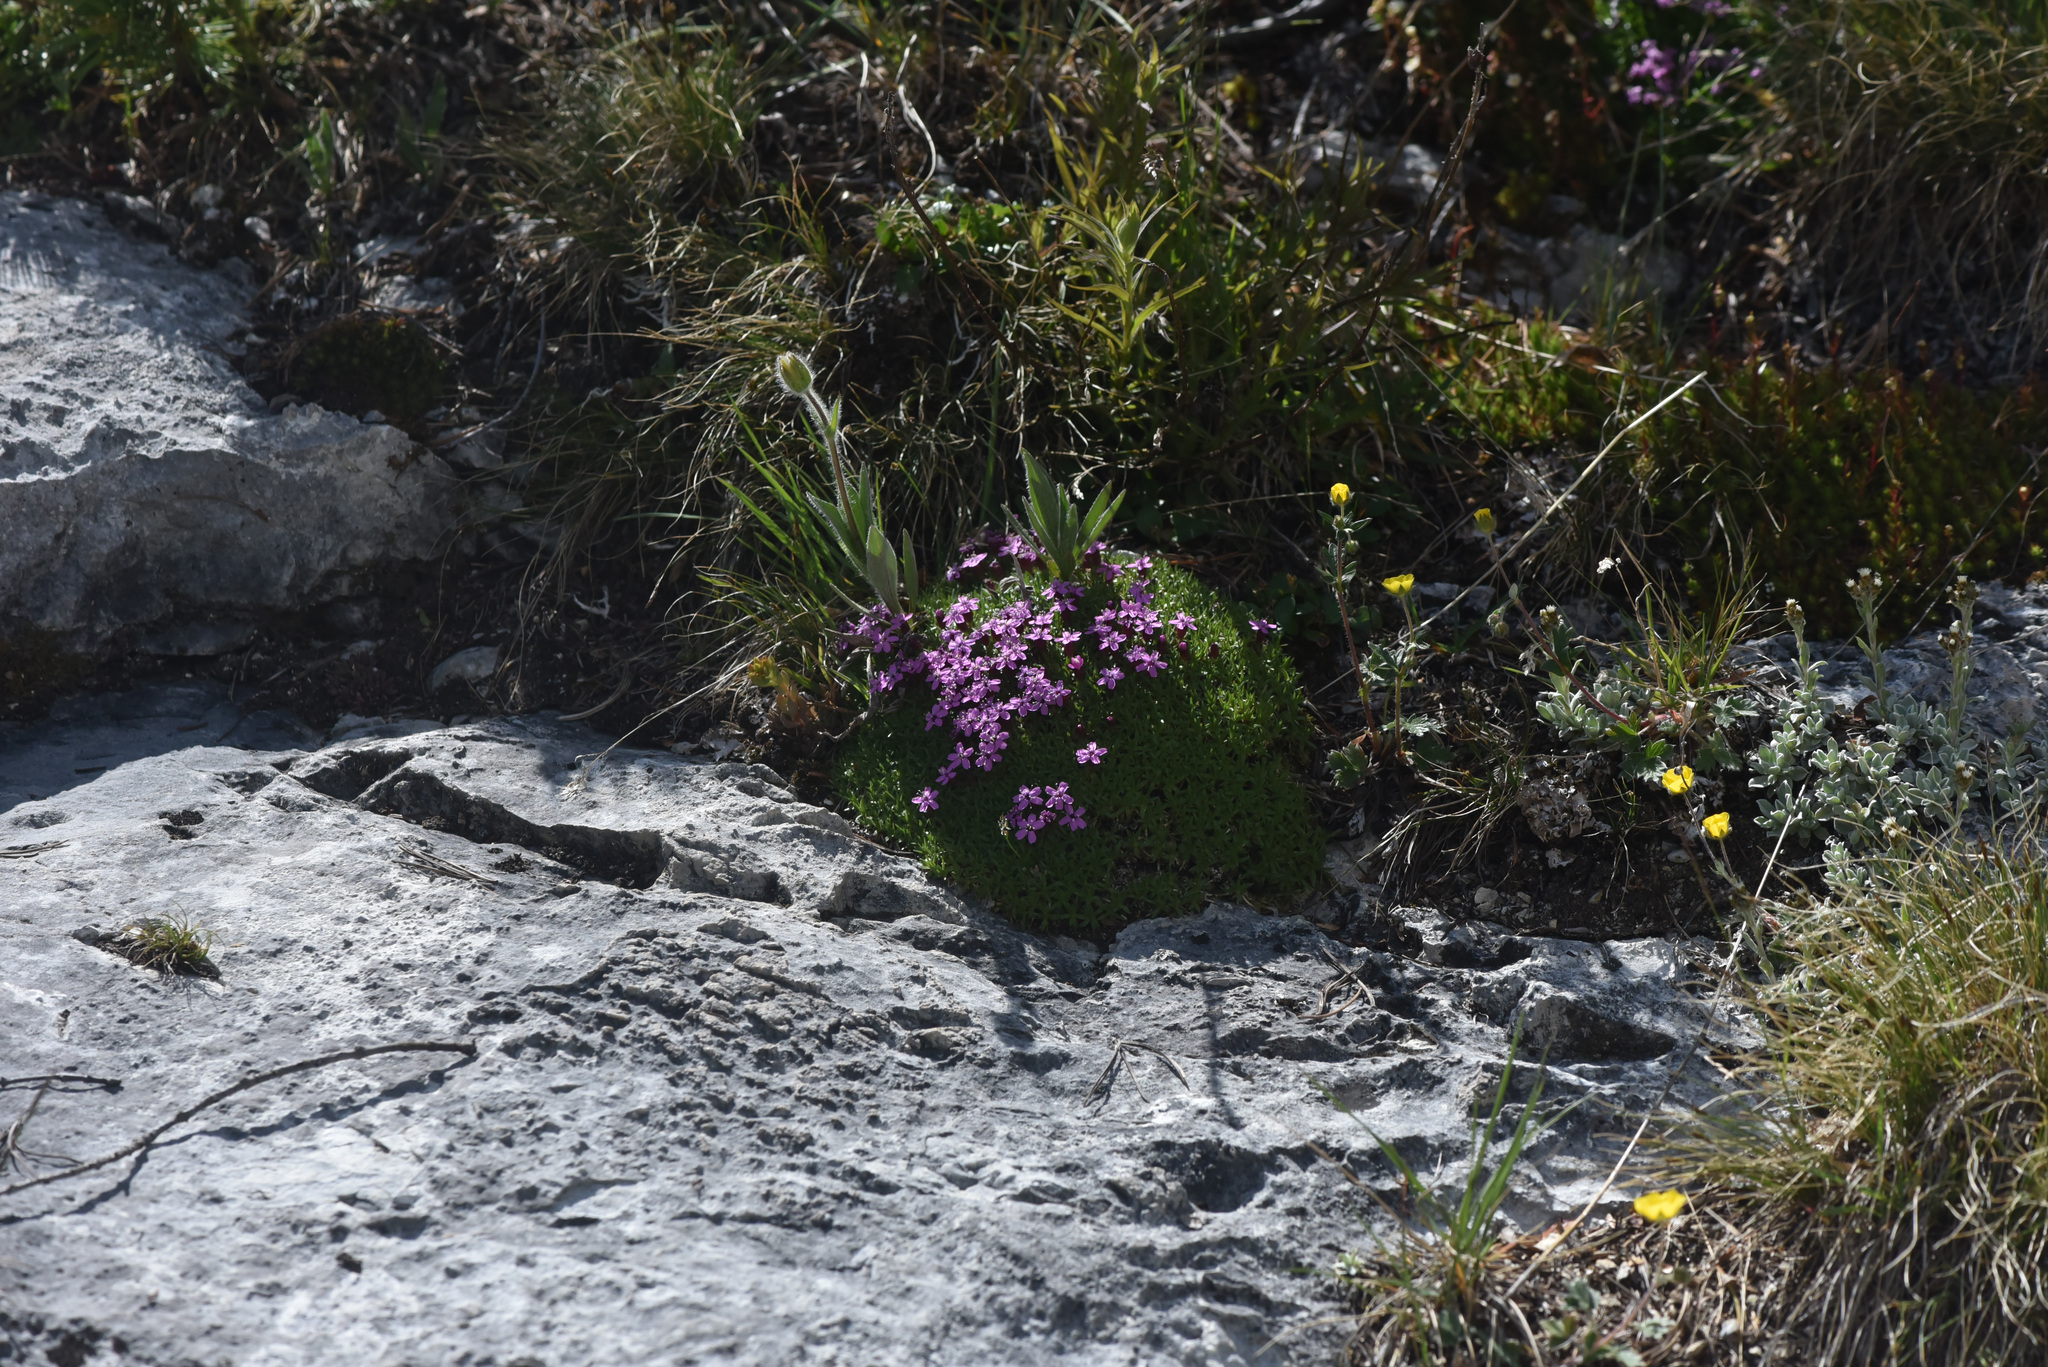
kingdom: Plantae
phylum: Tracheophyta
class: Magnoliopsida
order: Caryophyllales
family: Caryophyllaceae
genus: Silene
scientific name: Silene acaulis
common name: Moss campion
